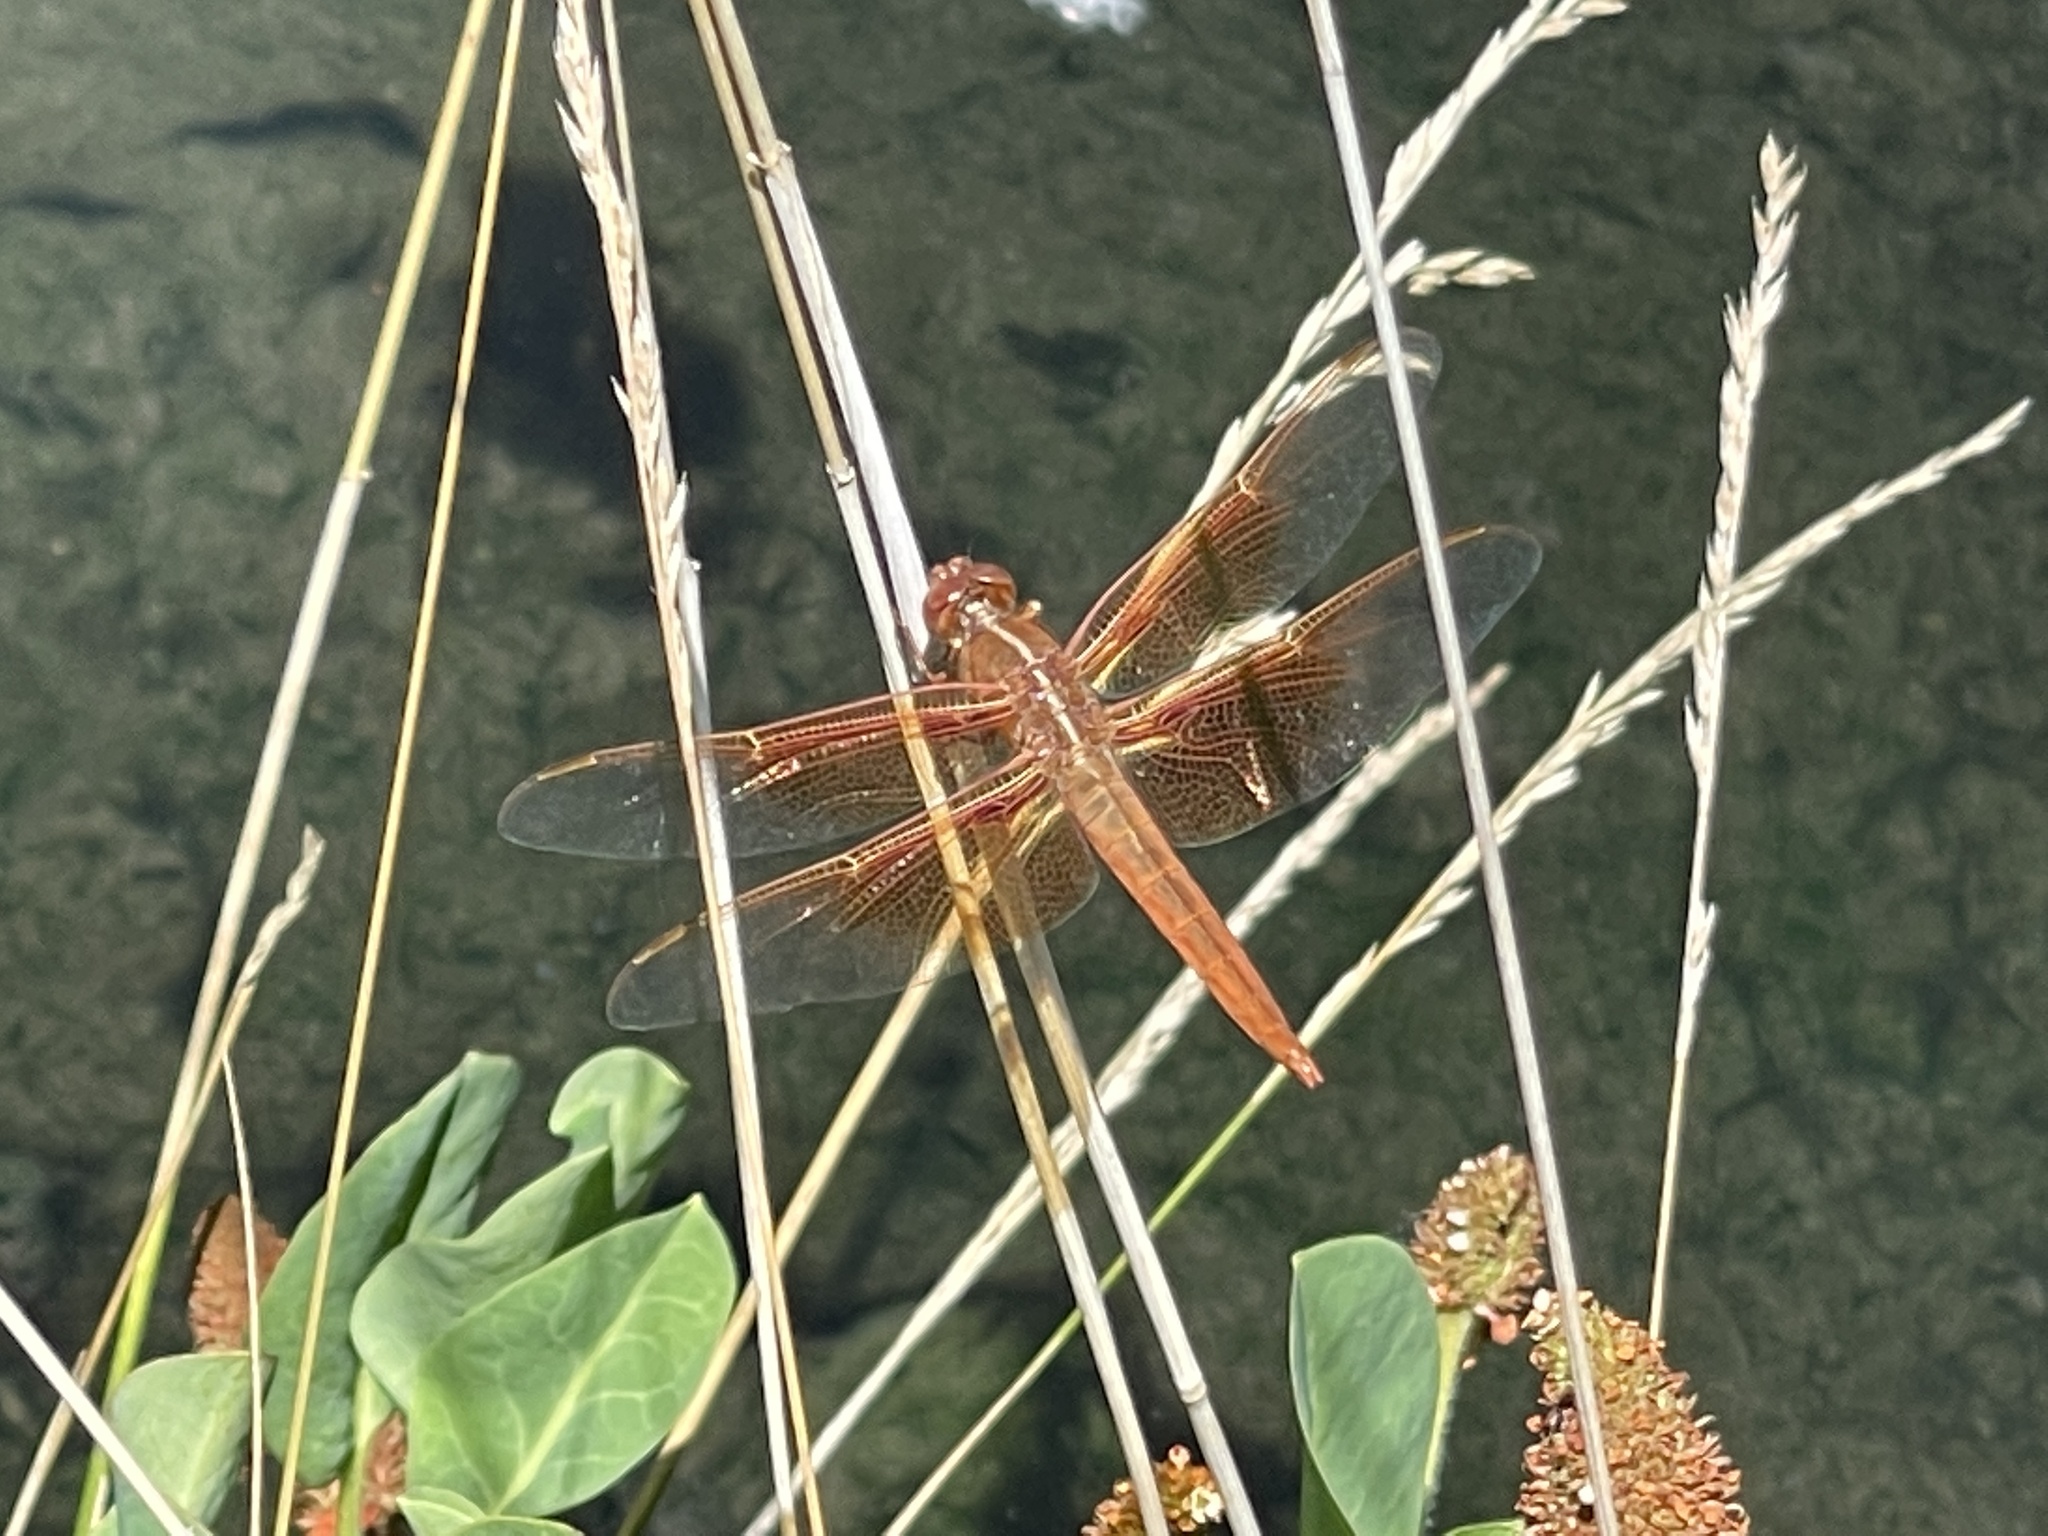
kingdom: Animalia
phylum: Arthropoda
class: Insecta
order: Odonata
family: Libellulidae
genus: Libellula
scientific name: Libellula saturata
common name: Flame skimmer
